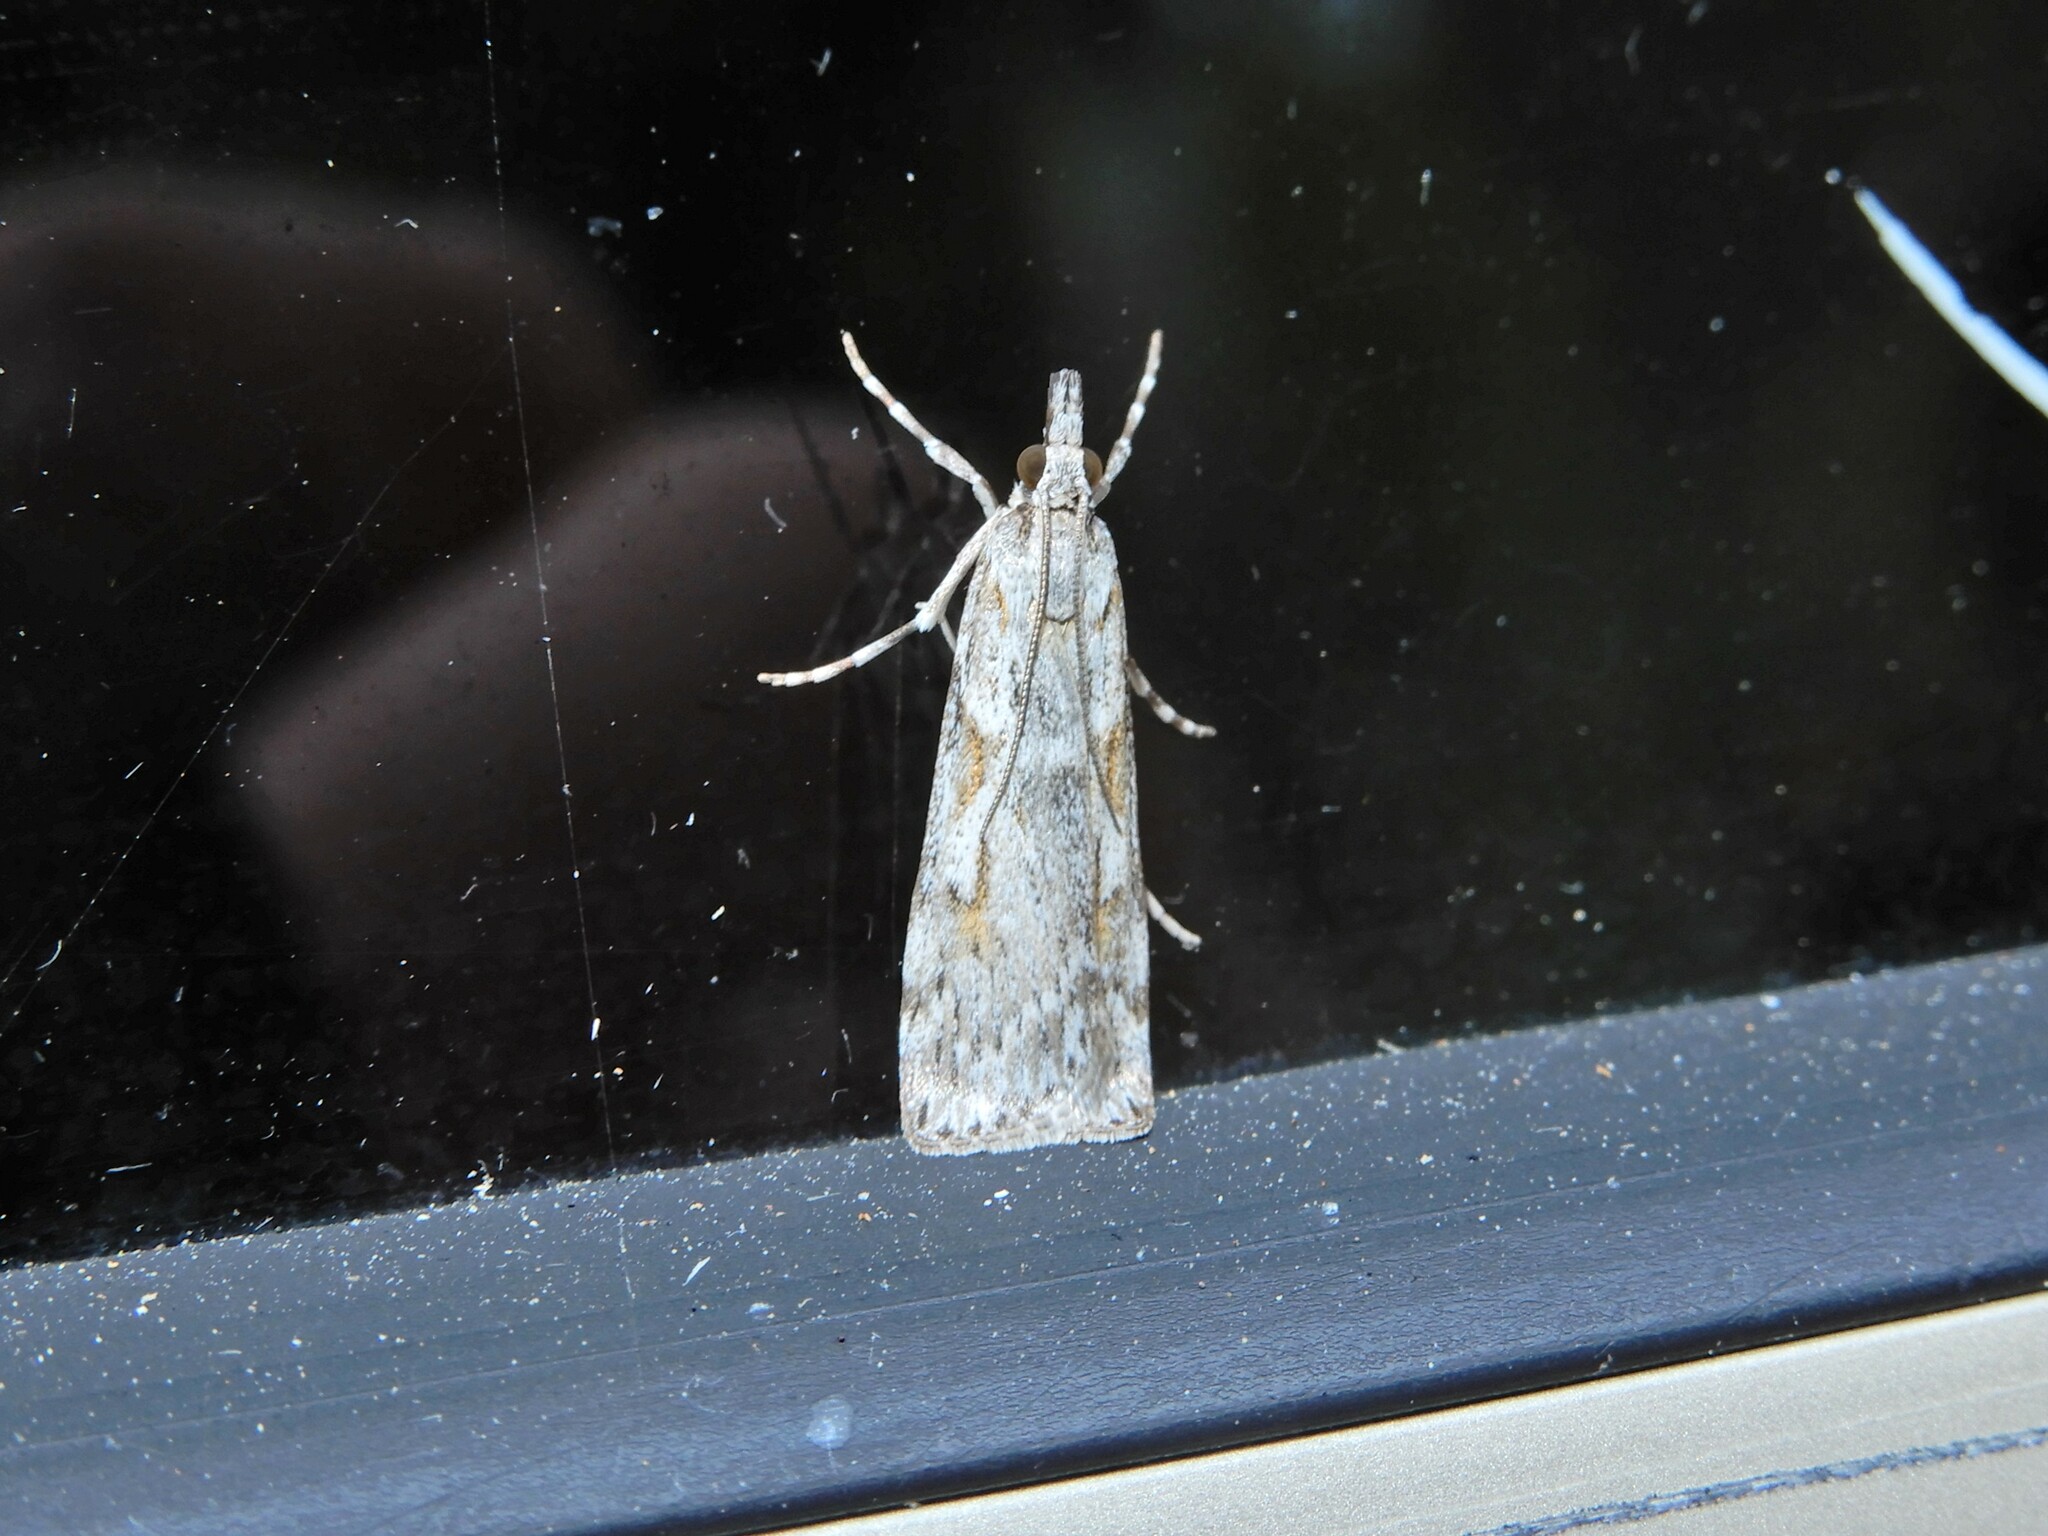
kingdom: Animalia
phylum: Arthropoda
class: Insecta
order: Lepidoptera
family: Crambidae
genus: Scoparia
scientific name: Scoparia halopis
